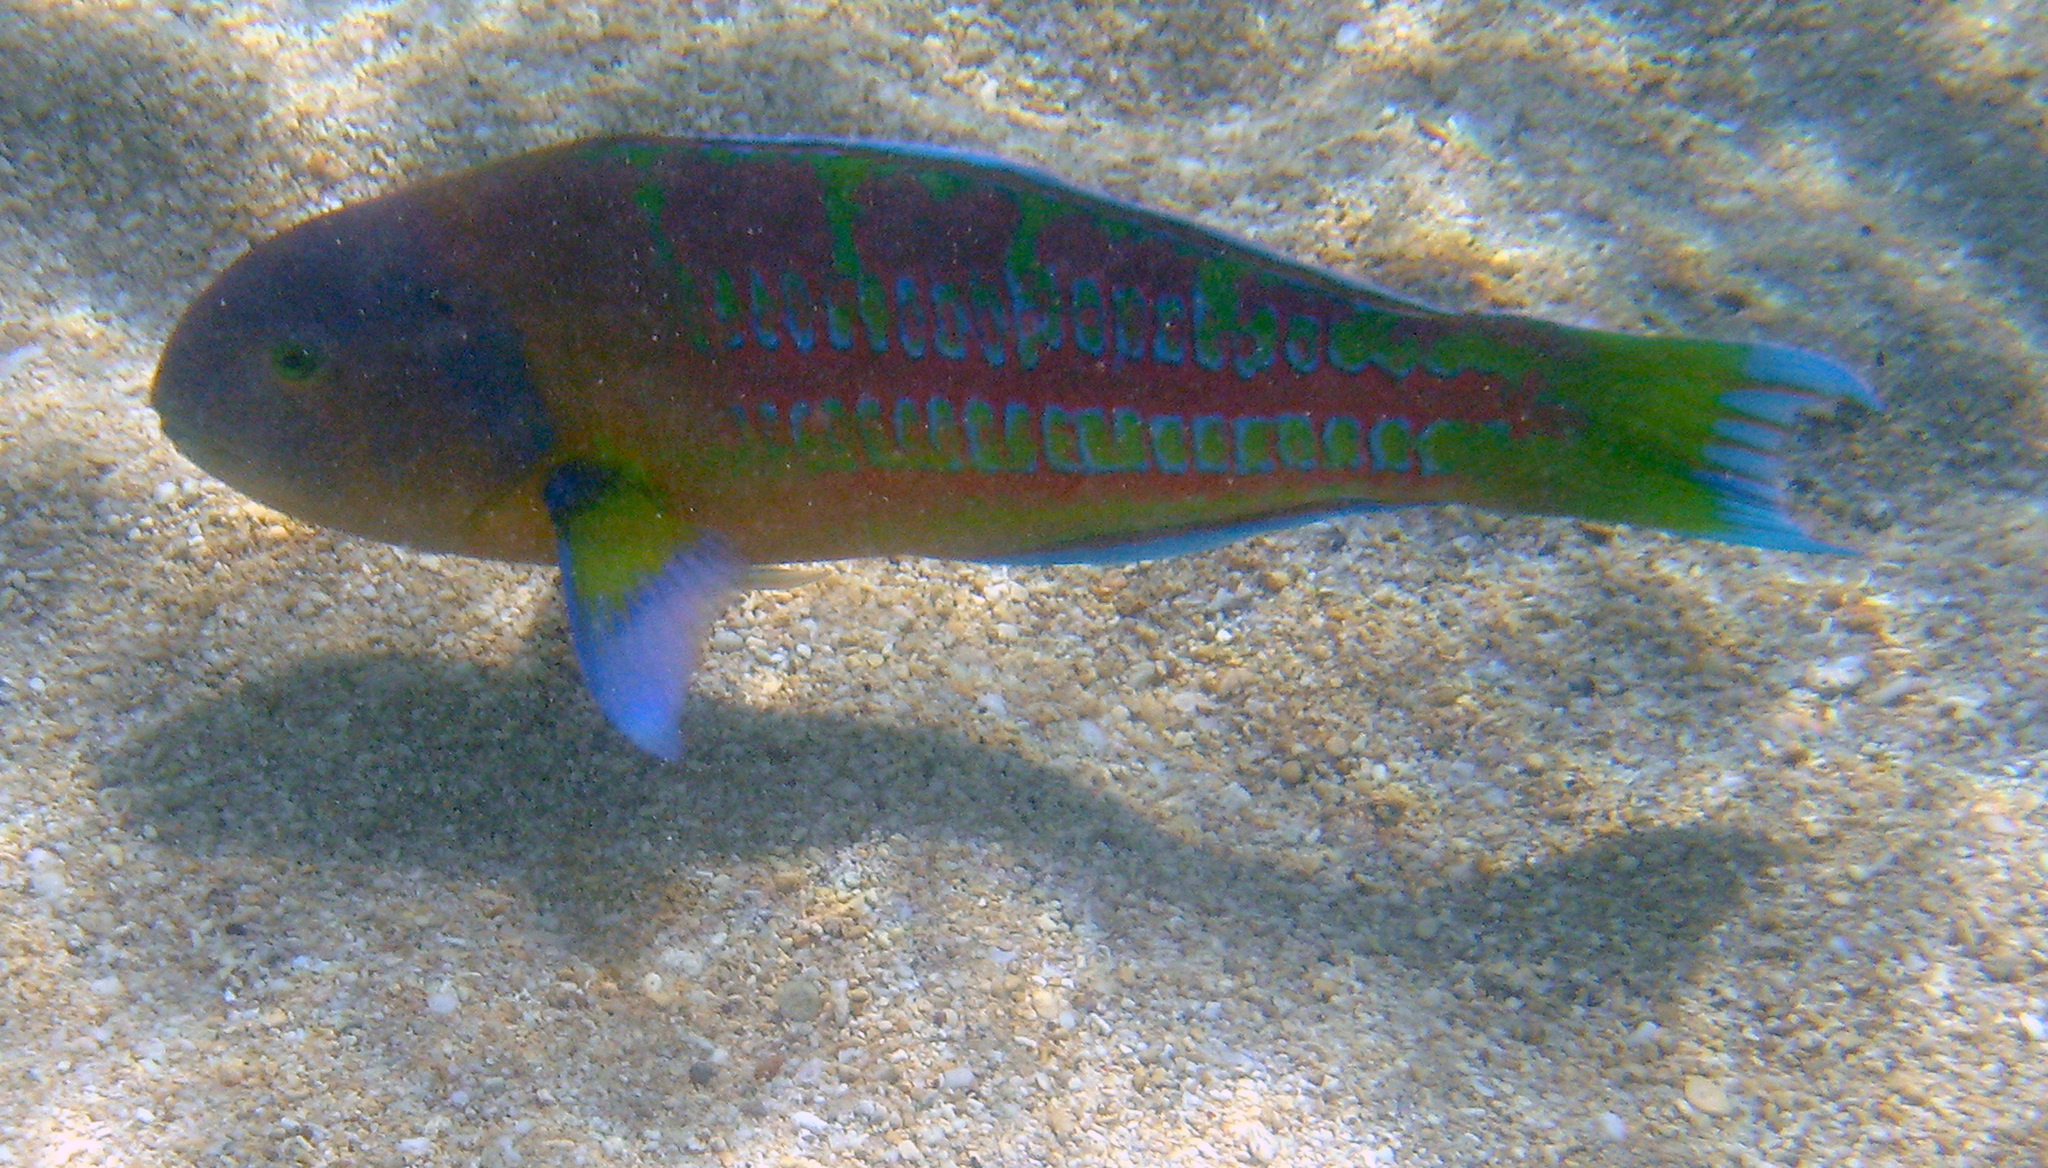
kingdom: Animalia
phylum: Chordata
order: Perciformes
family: Labridae
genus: Thalassoma
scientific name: Thalassoma trilobatum
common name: Christmas wrasse
